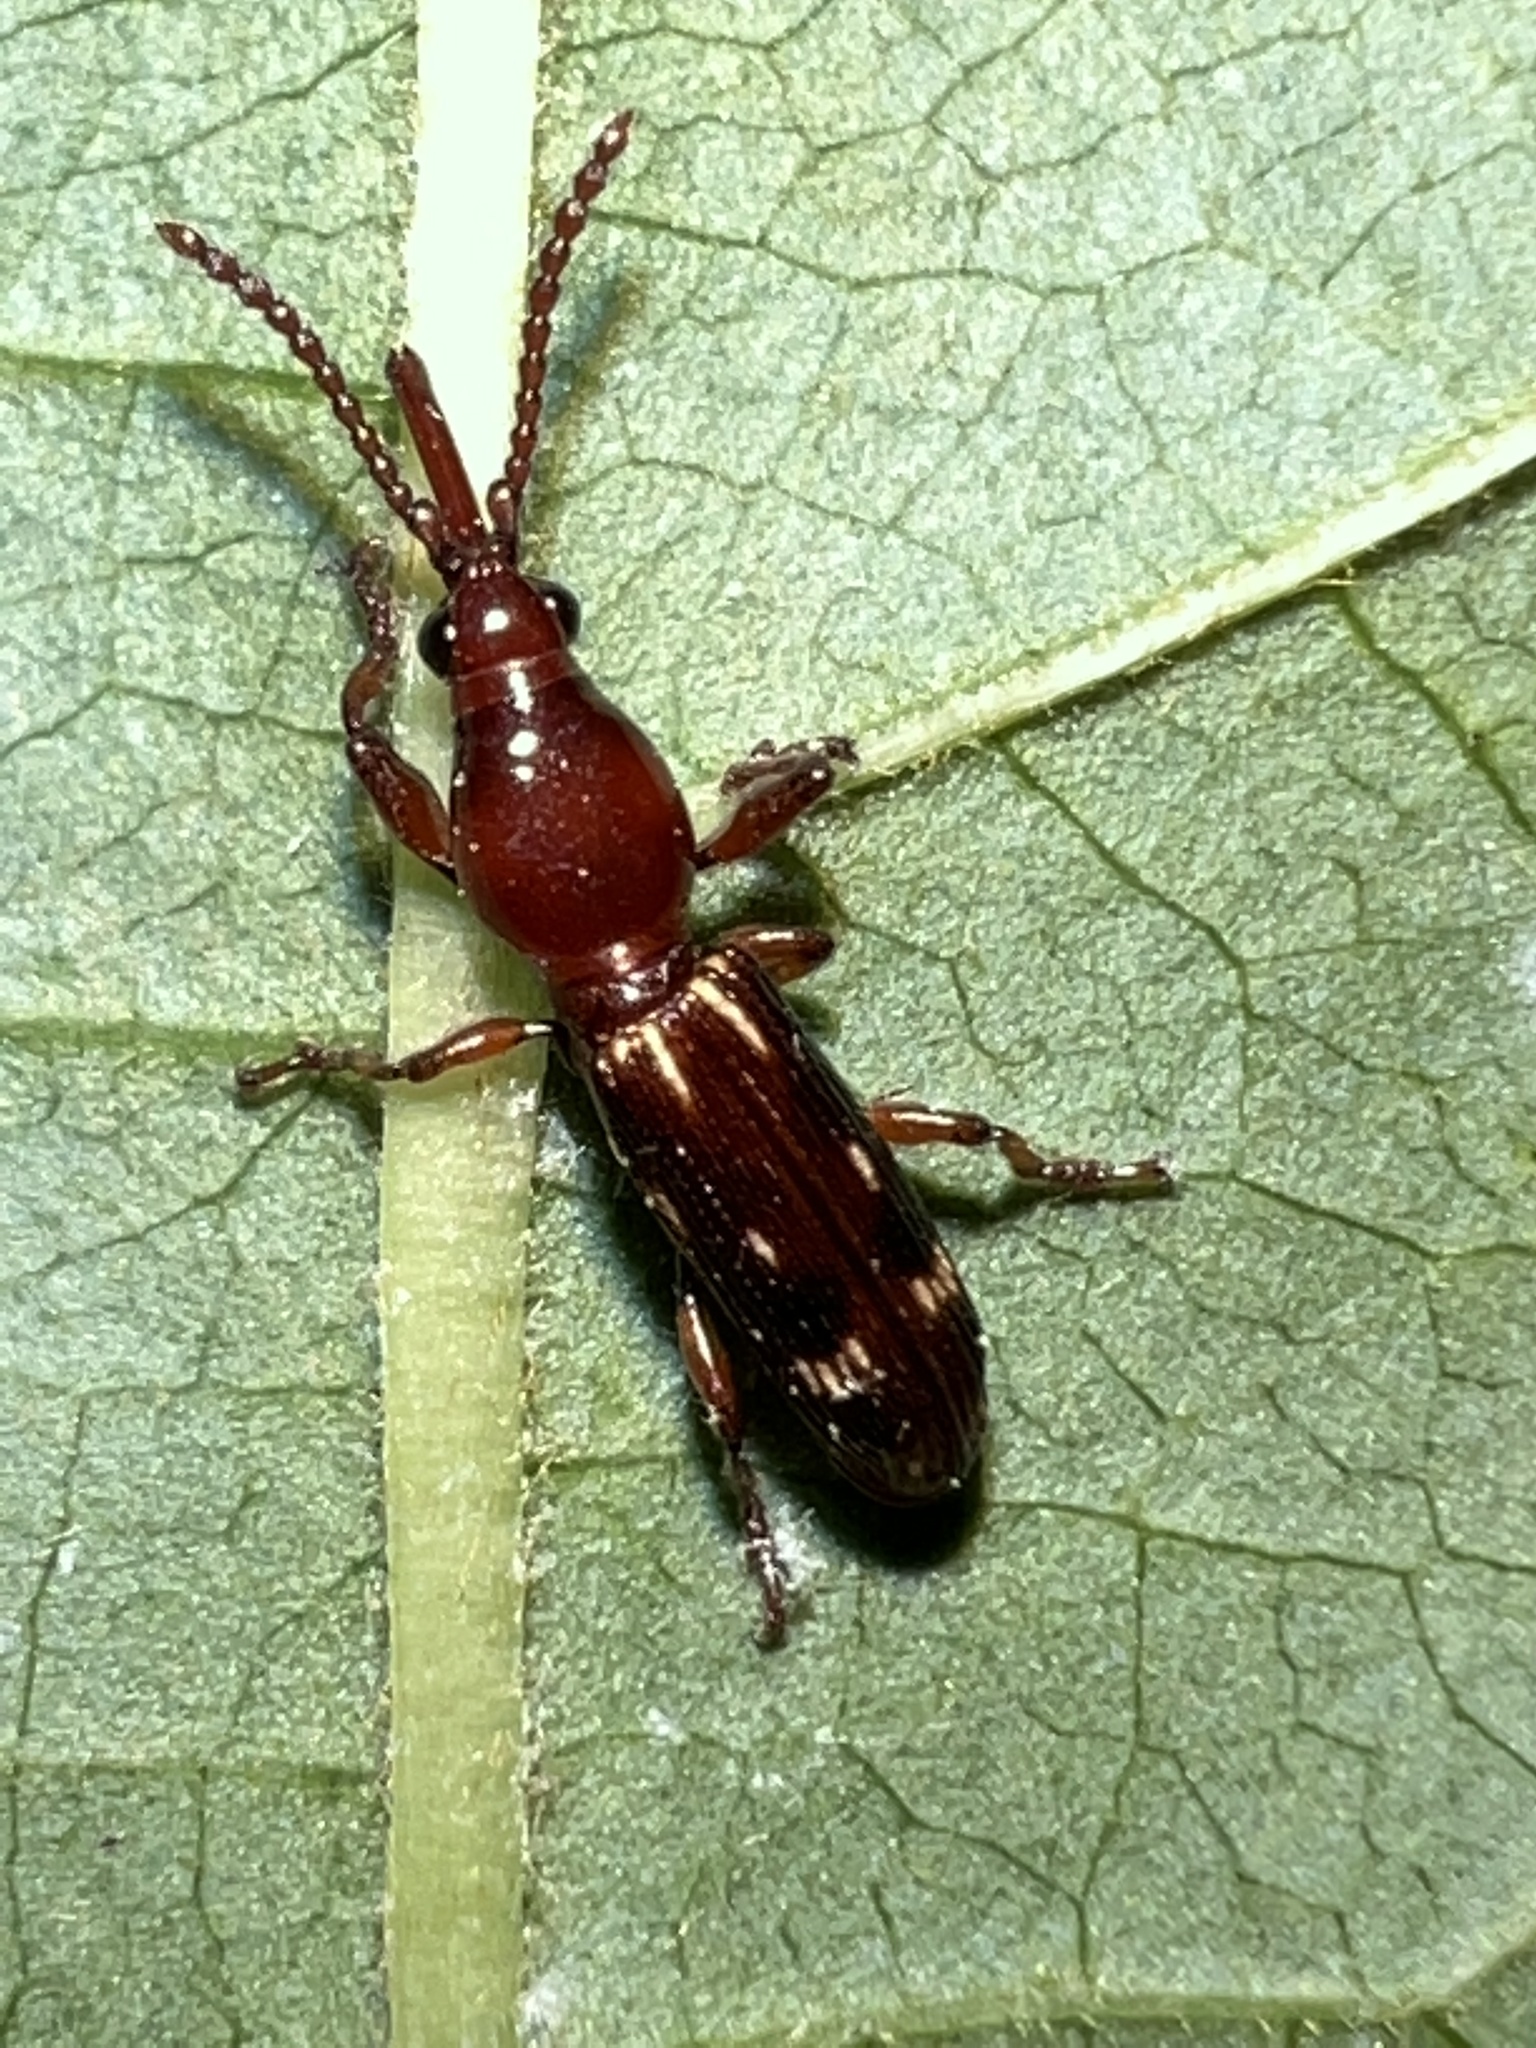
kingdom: Animalia
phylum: Arthropoda
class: Insecta
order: Coleoptera
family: Brentidae
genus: Arrenodes
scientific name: Arrenodes minutus
